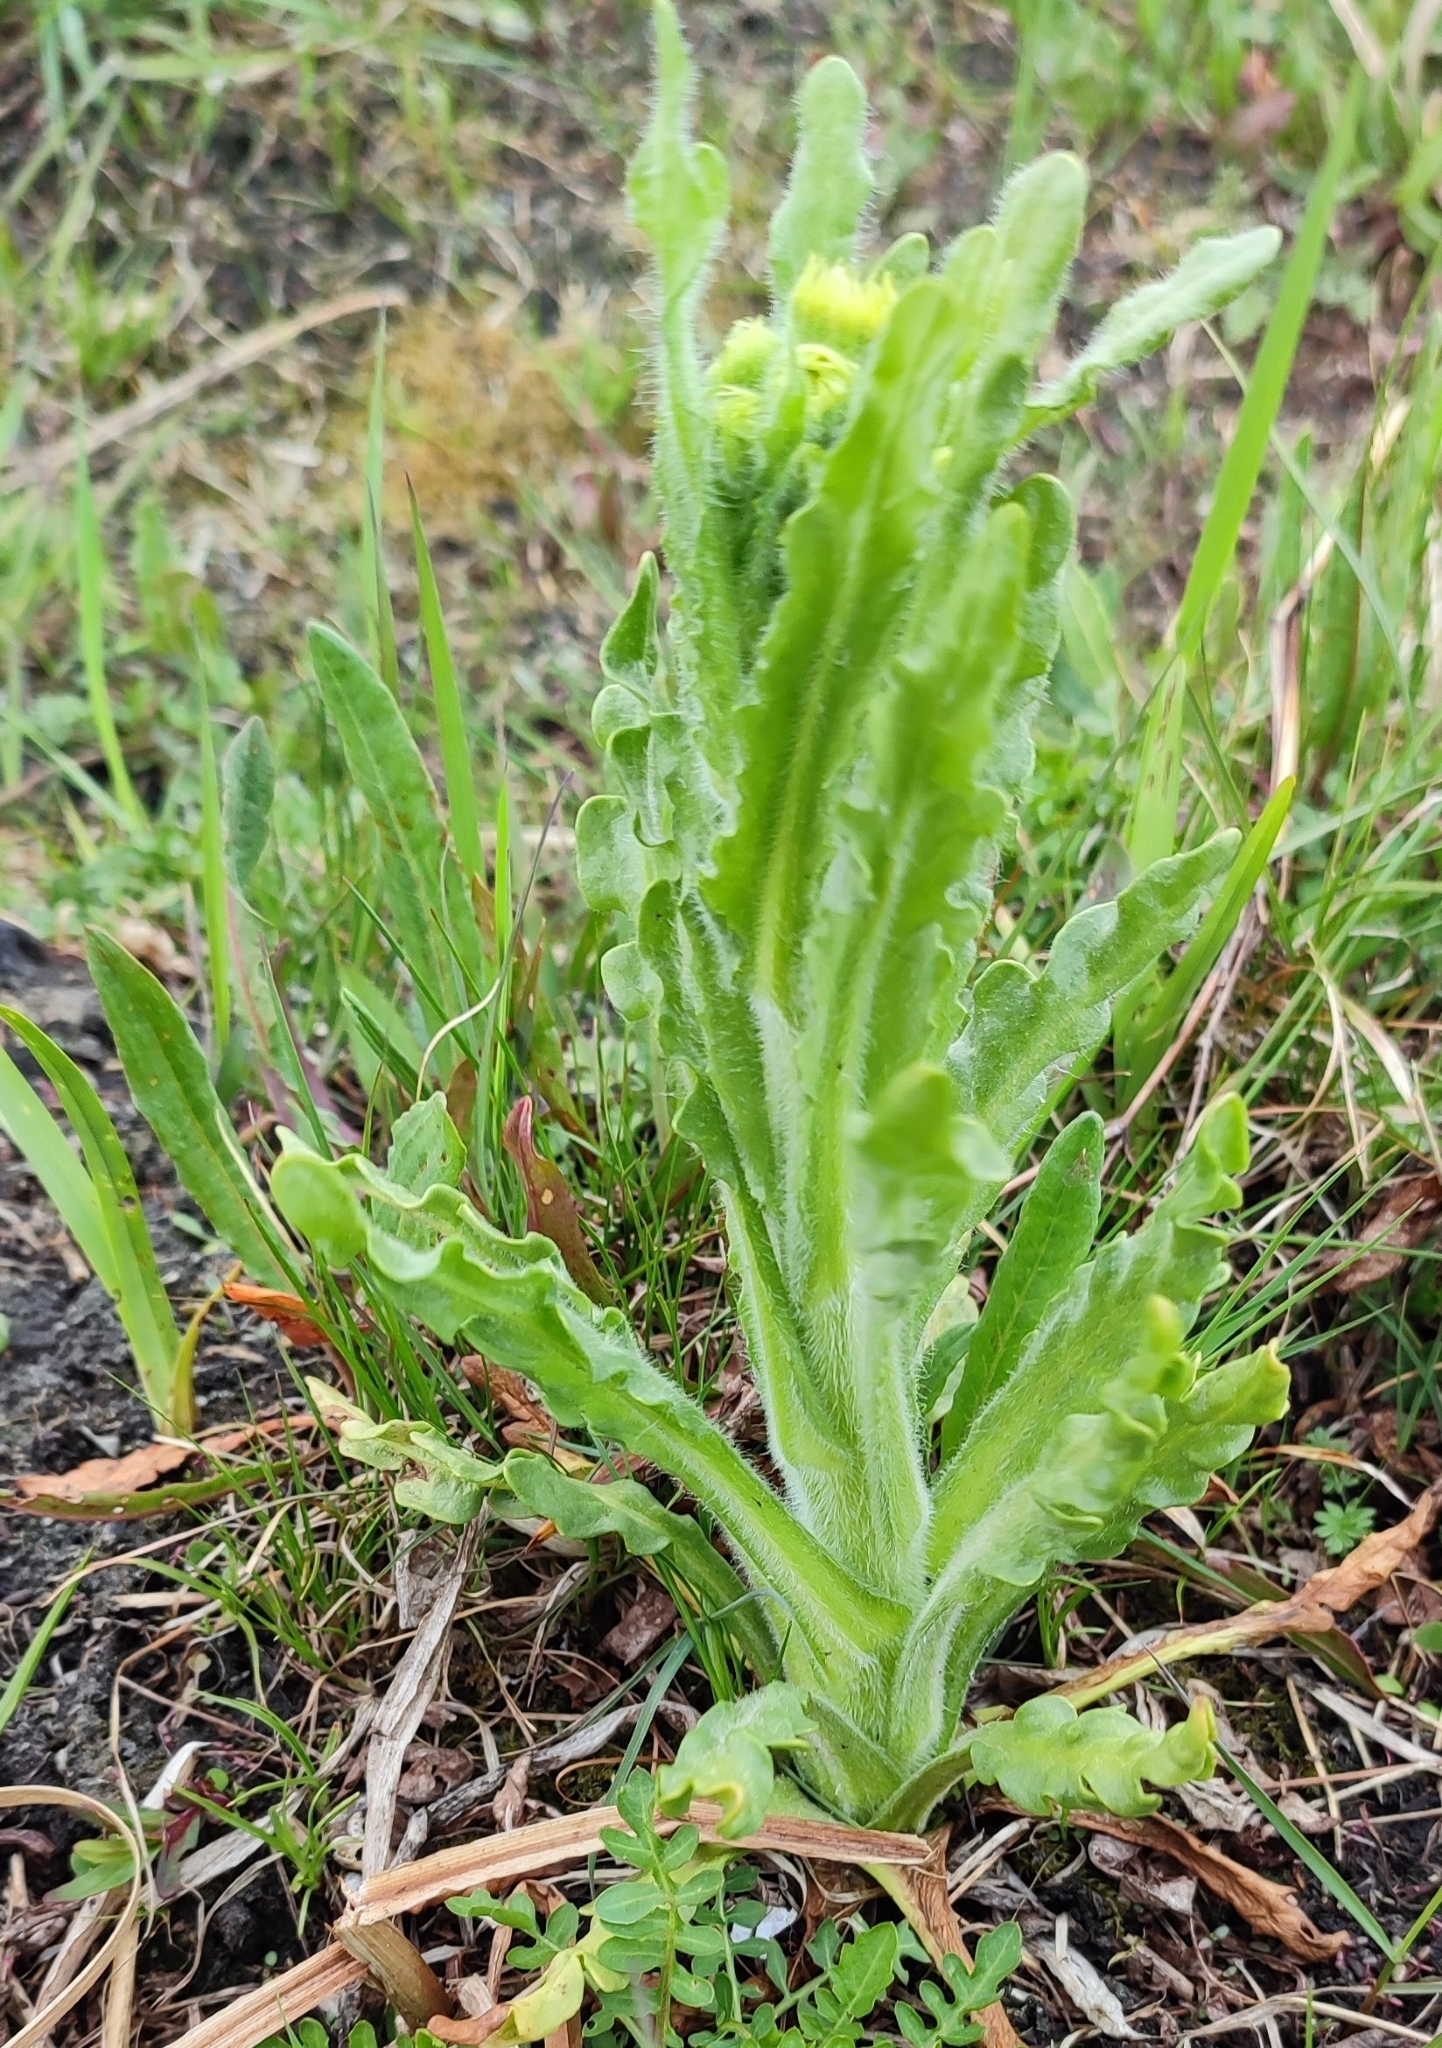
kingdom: Plantae
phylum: Tracheophyta
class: Magnoliopsida
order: Asterales
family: Asteraceae
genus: Tephroseris
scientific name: Tephroseris palustris
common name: Marsh fleawort
